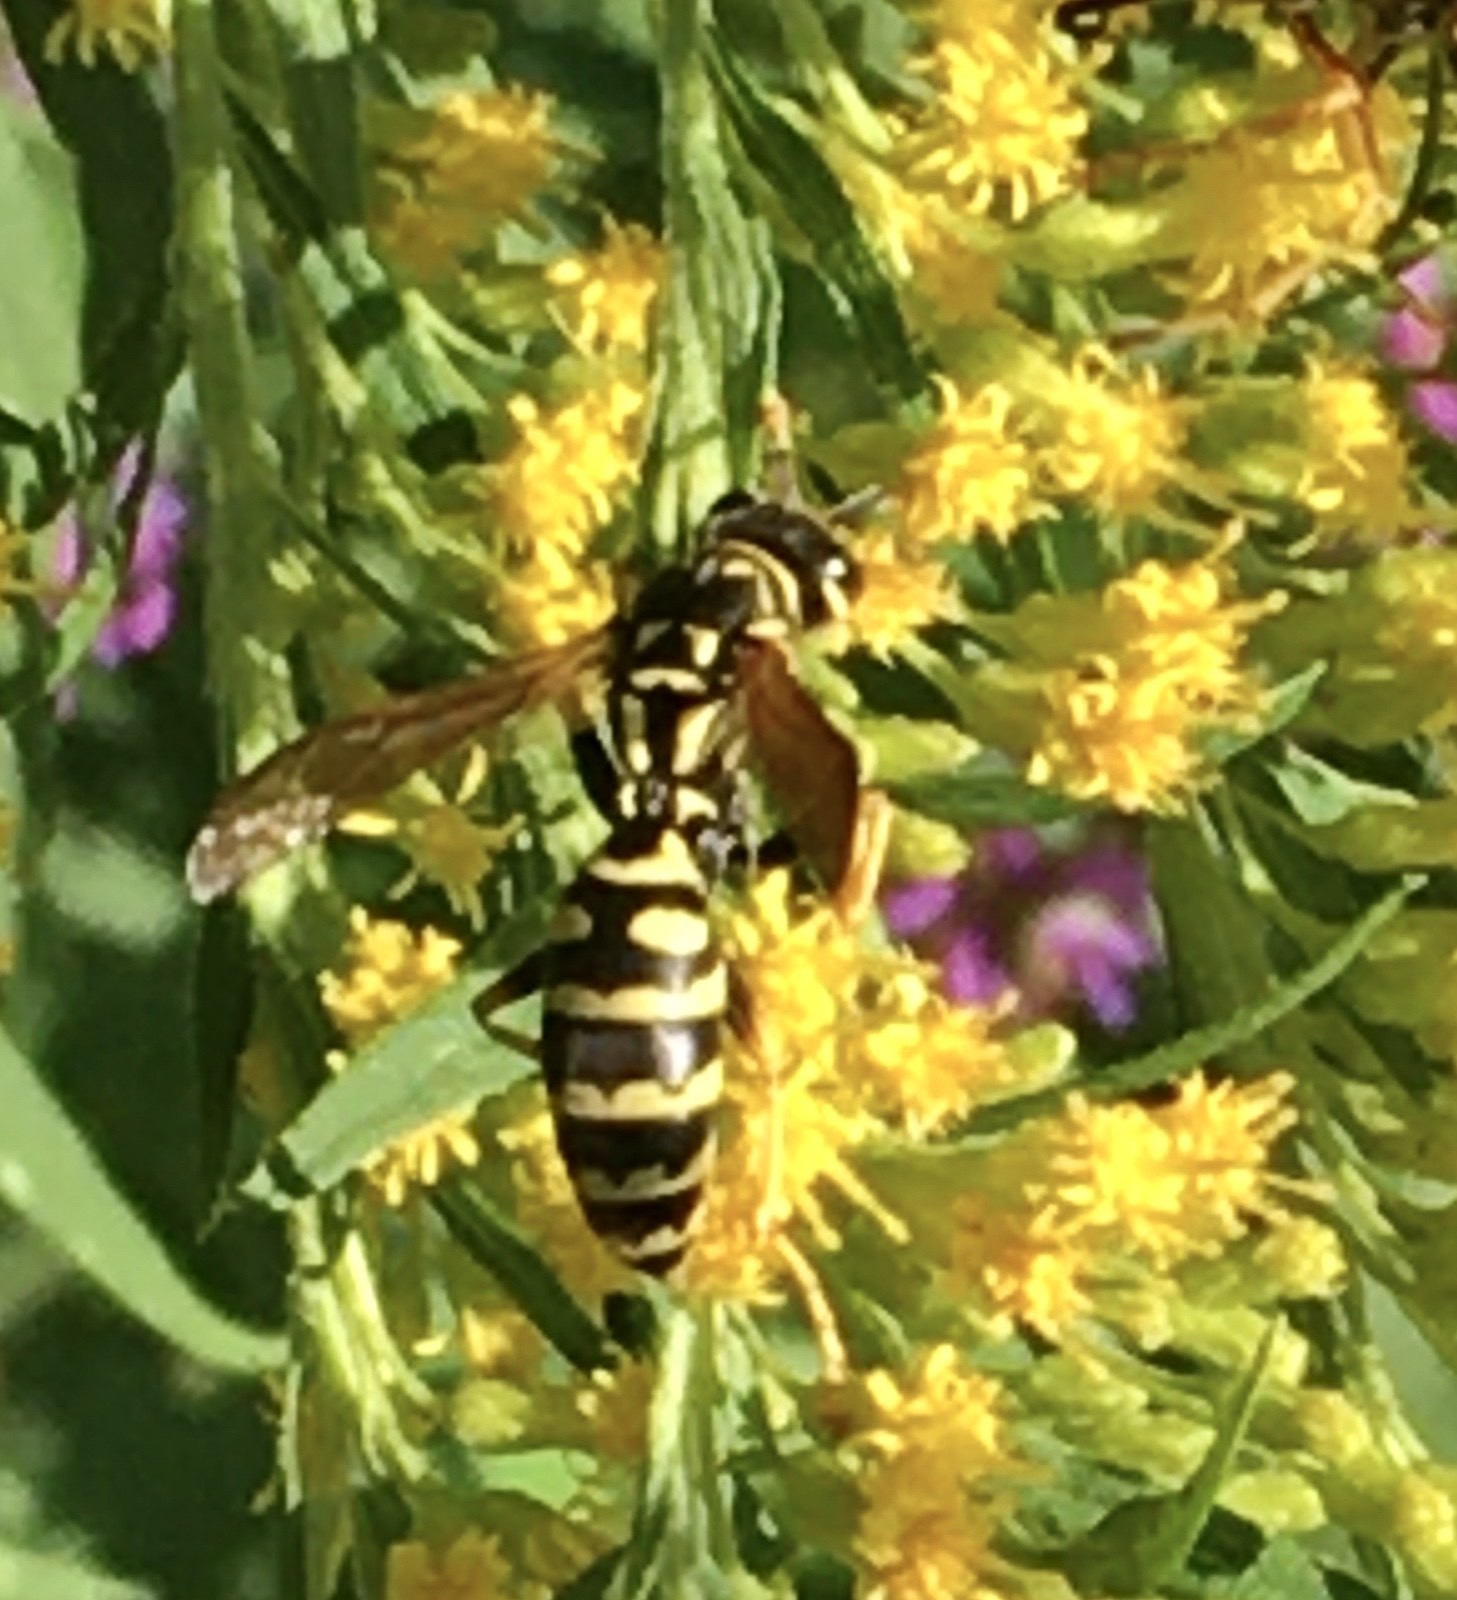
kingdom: Animalia
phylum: Arthropoda
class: Insecta
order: Hymenoptera
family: Eumenidae
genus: Polistes
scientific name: Polistes dominula
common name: Paper wasp
